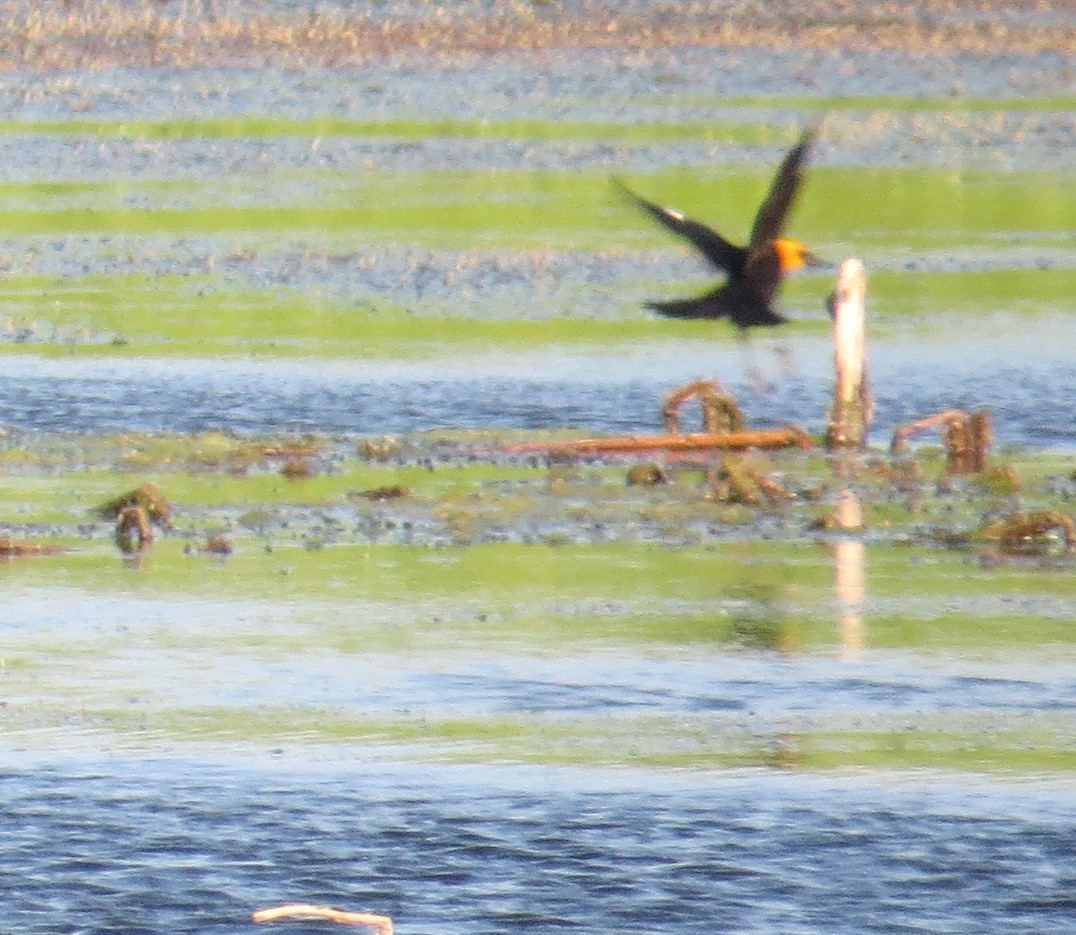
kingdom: Animalia
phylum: Chordata
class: Aves
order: Passeriformes
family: Icteridae
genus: Xanthocephalus
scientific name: Xanthocephalus xanthocephalus
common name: Yellow-headed blackbird
